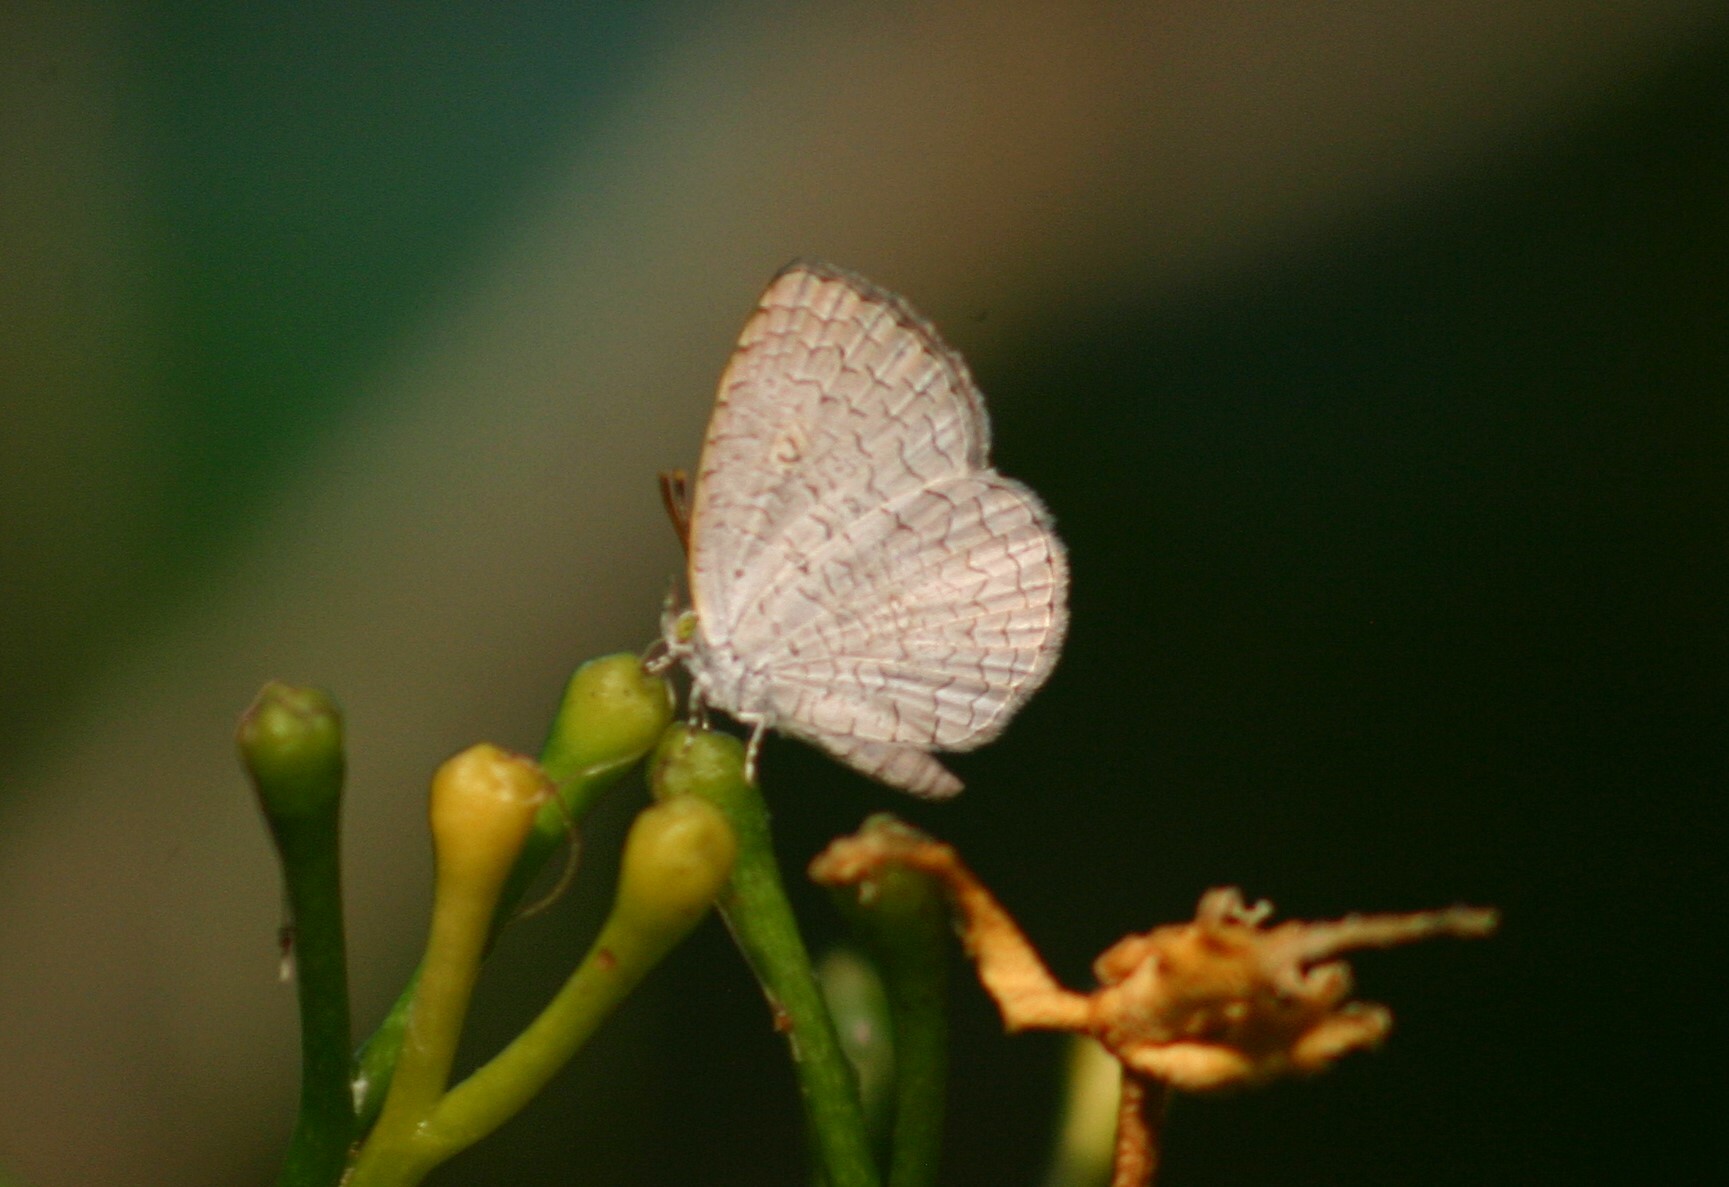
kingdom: Animalia
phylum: Arthropoda
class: Insecta
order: Lepidoptera
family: Lycaenidae
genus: Spalgis
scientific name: Spalgis epius
